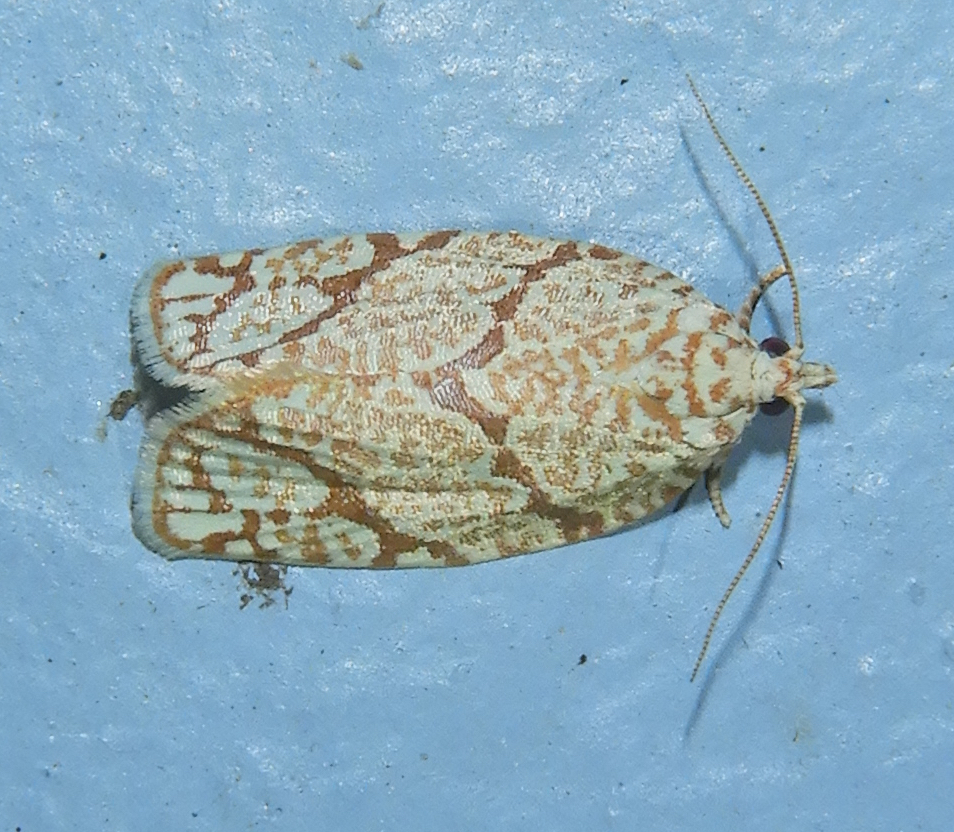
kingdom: Animalia
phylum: Arthropoda
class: Insecta
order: Lepidoptera
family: Tortricidae
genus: Argyrotaenia
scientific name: Argyrotaenia quercifoliana
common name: Yellow-winged oak leafroller moth
